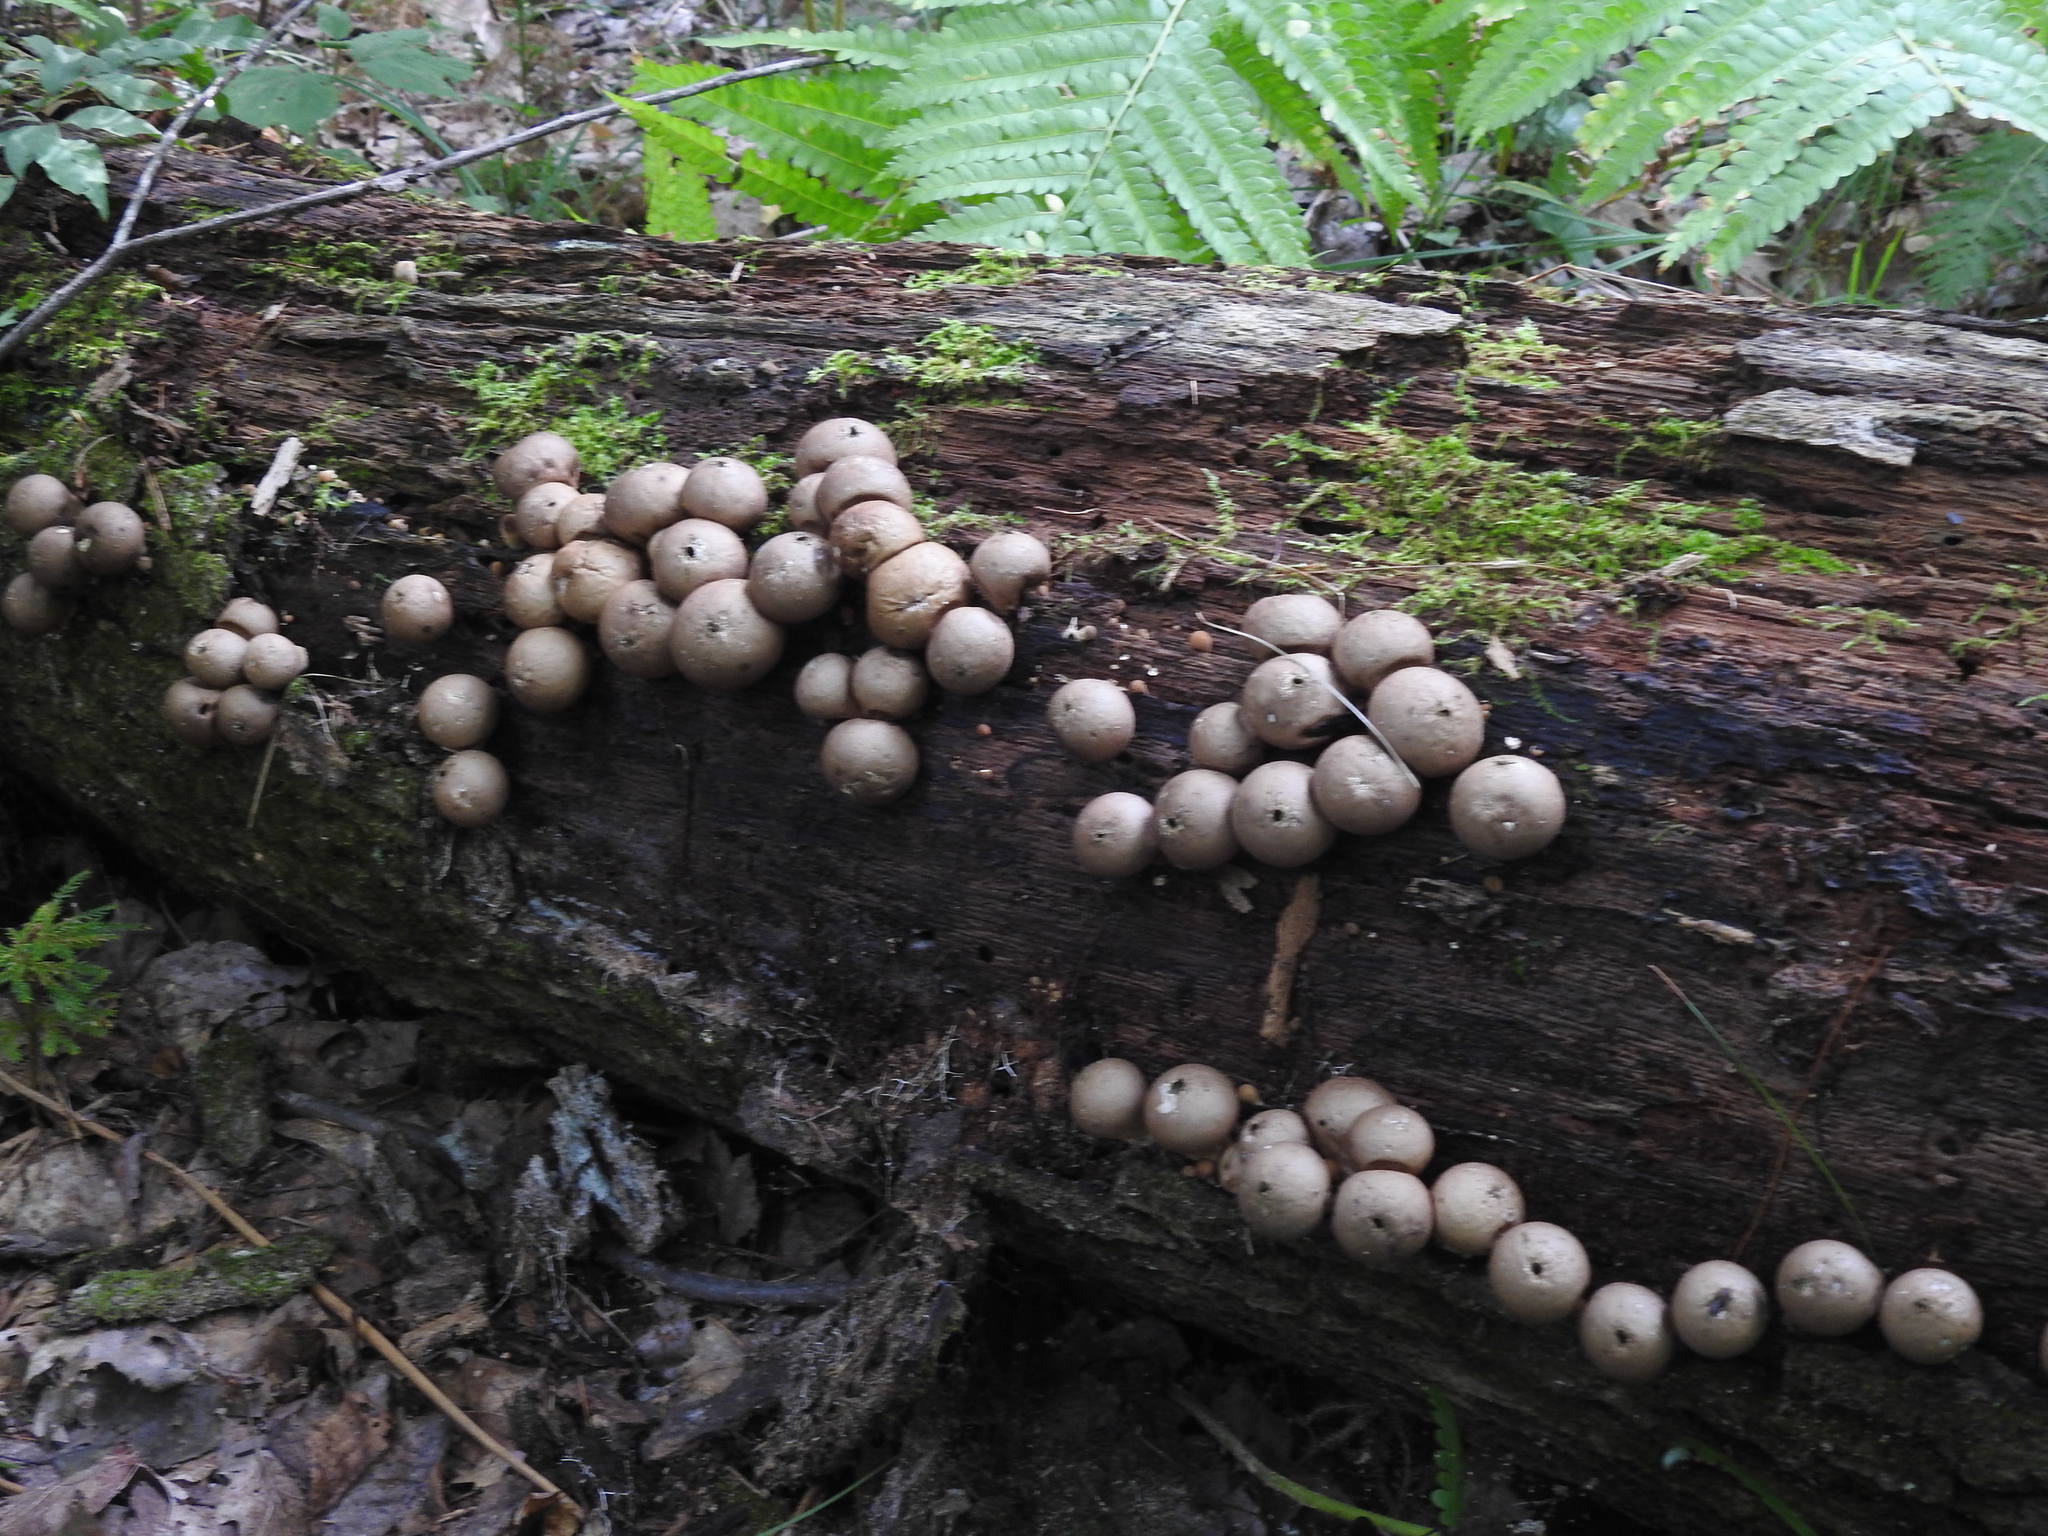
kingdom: Fungi
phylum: Basidiomycota
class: Agaricomycetes
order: Agaricales
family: Lycoperdaceae
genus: Apioperdon
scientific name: Apioperdon pyriforme
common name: Pear-shaped puffball
